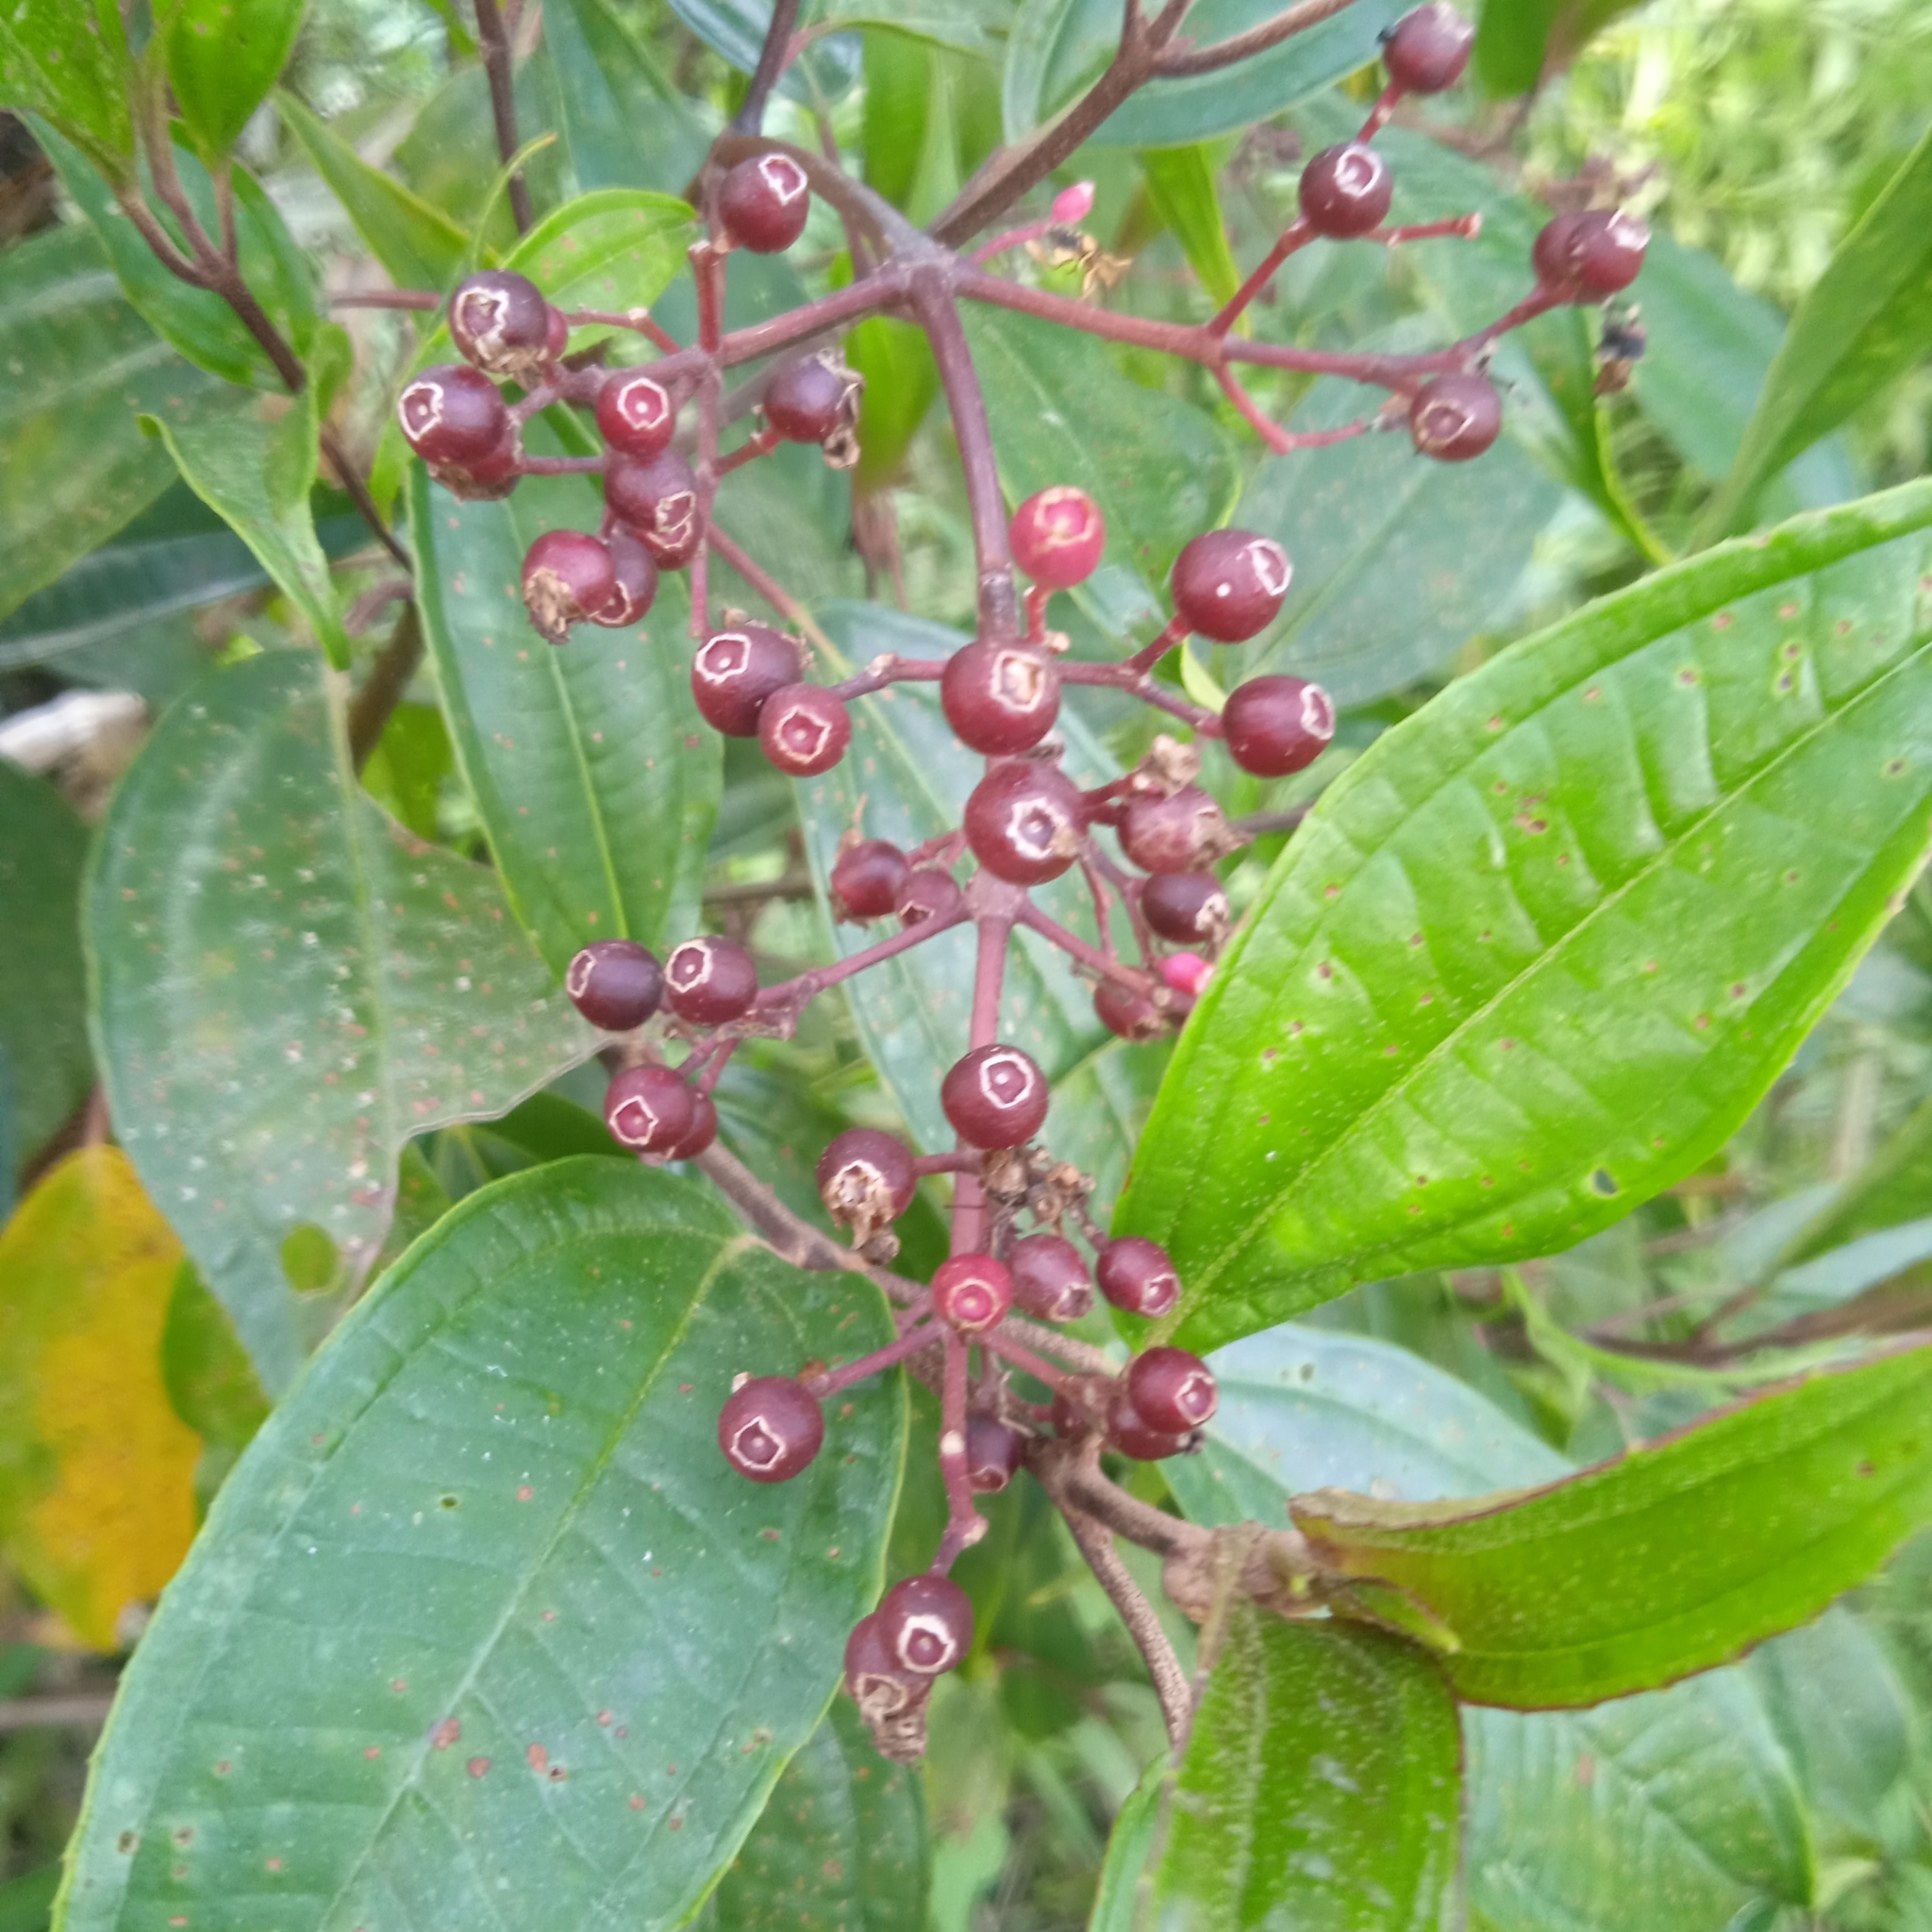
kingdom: Plantae
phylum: Tracheophyta
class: Magnoliopsida
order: Myrtales
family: Melastomataceae
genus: Miconia
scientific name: Miconia mexicana
